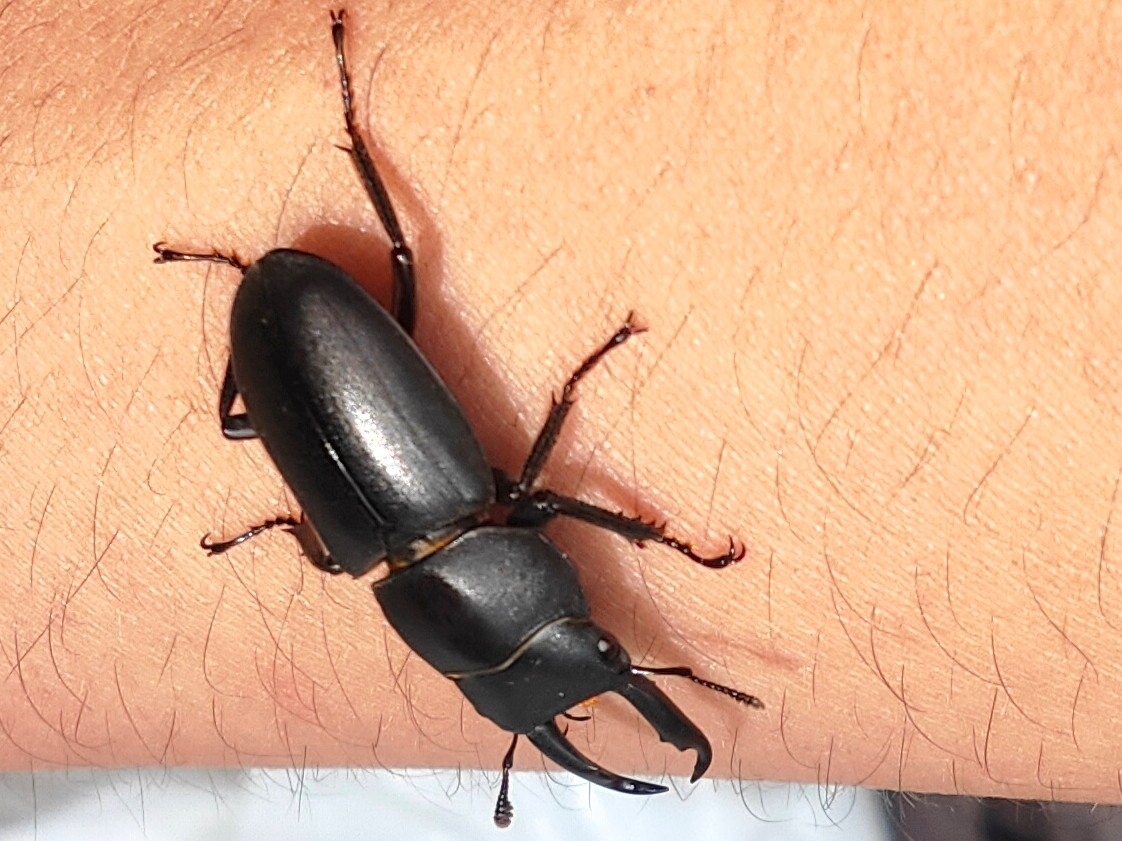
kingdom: Animalia
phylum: Arthropoda
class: Insecta
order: Coleoptera
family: Lucanidae
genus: Dorcus
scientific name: Dorcus striatipennis
